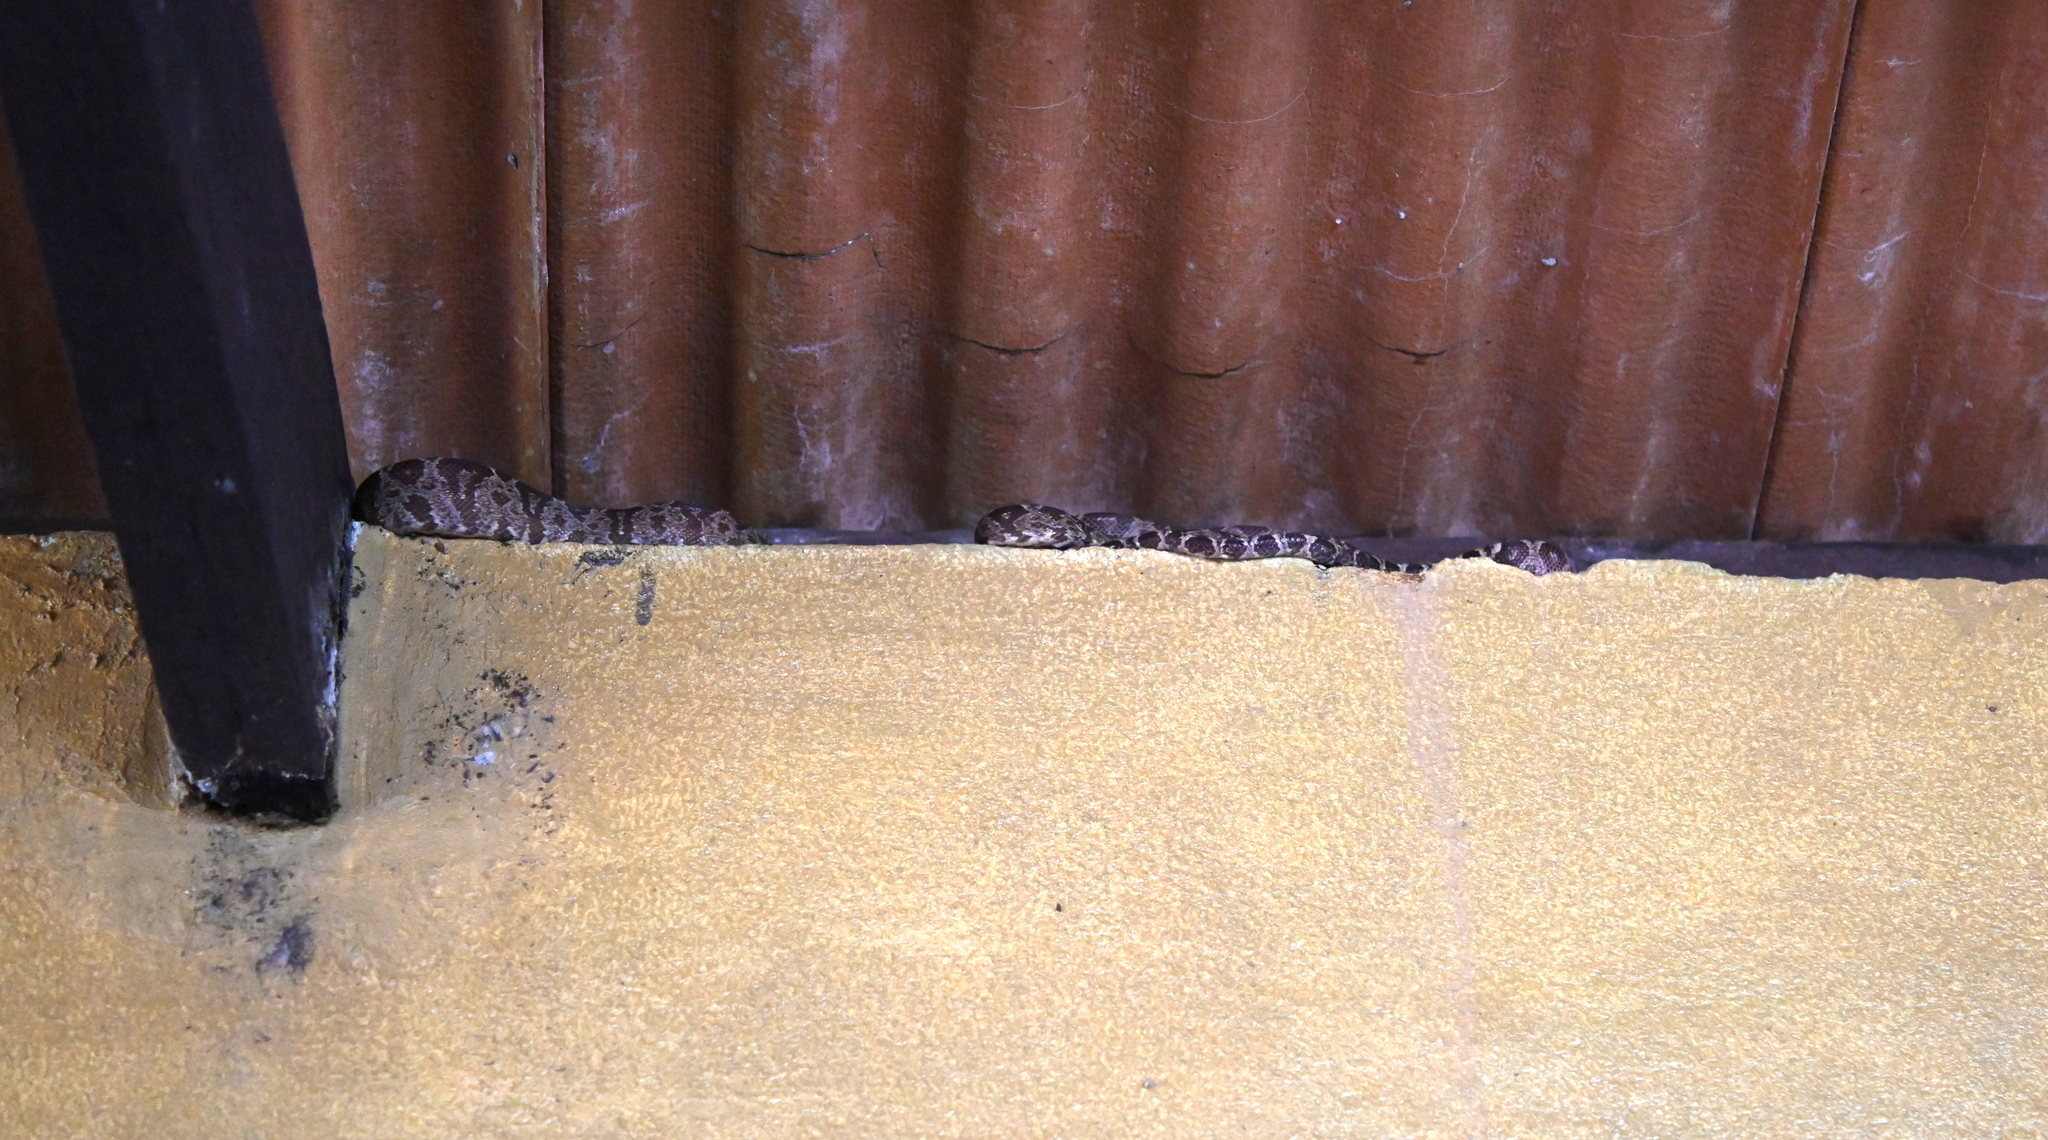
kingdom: Animalia
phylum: Chordata
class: Squamata
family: Boidae
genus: Corallus
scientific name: Corallus hortulana
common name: Garden tree boa
